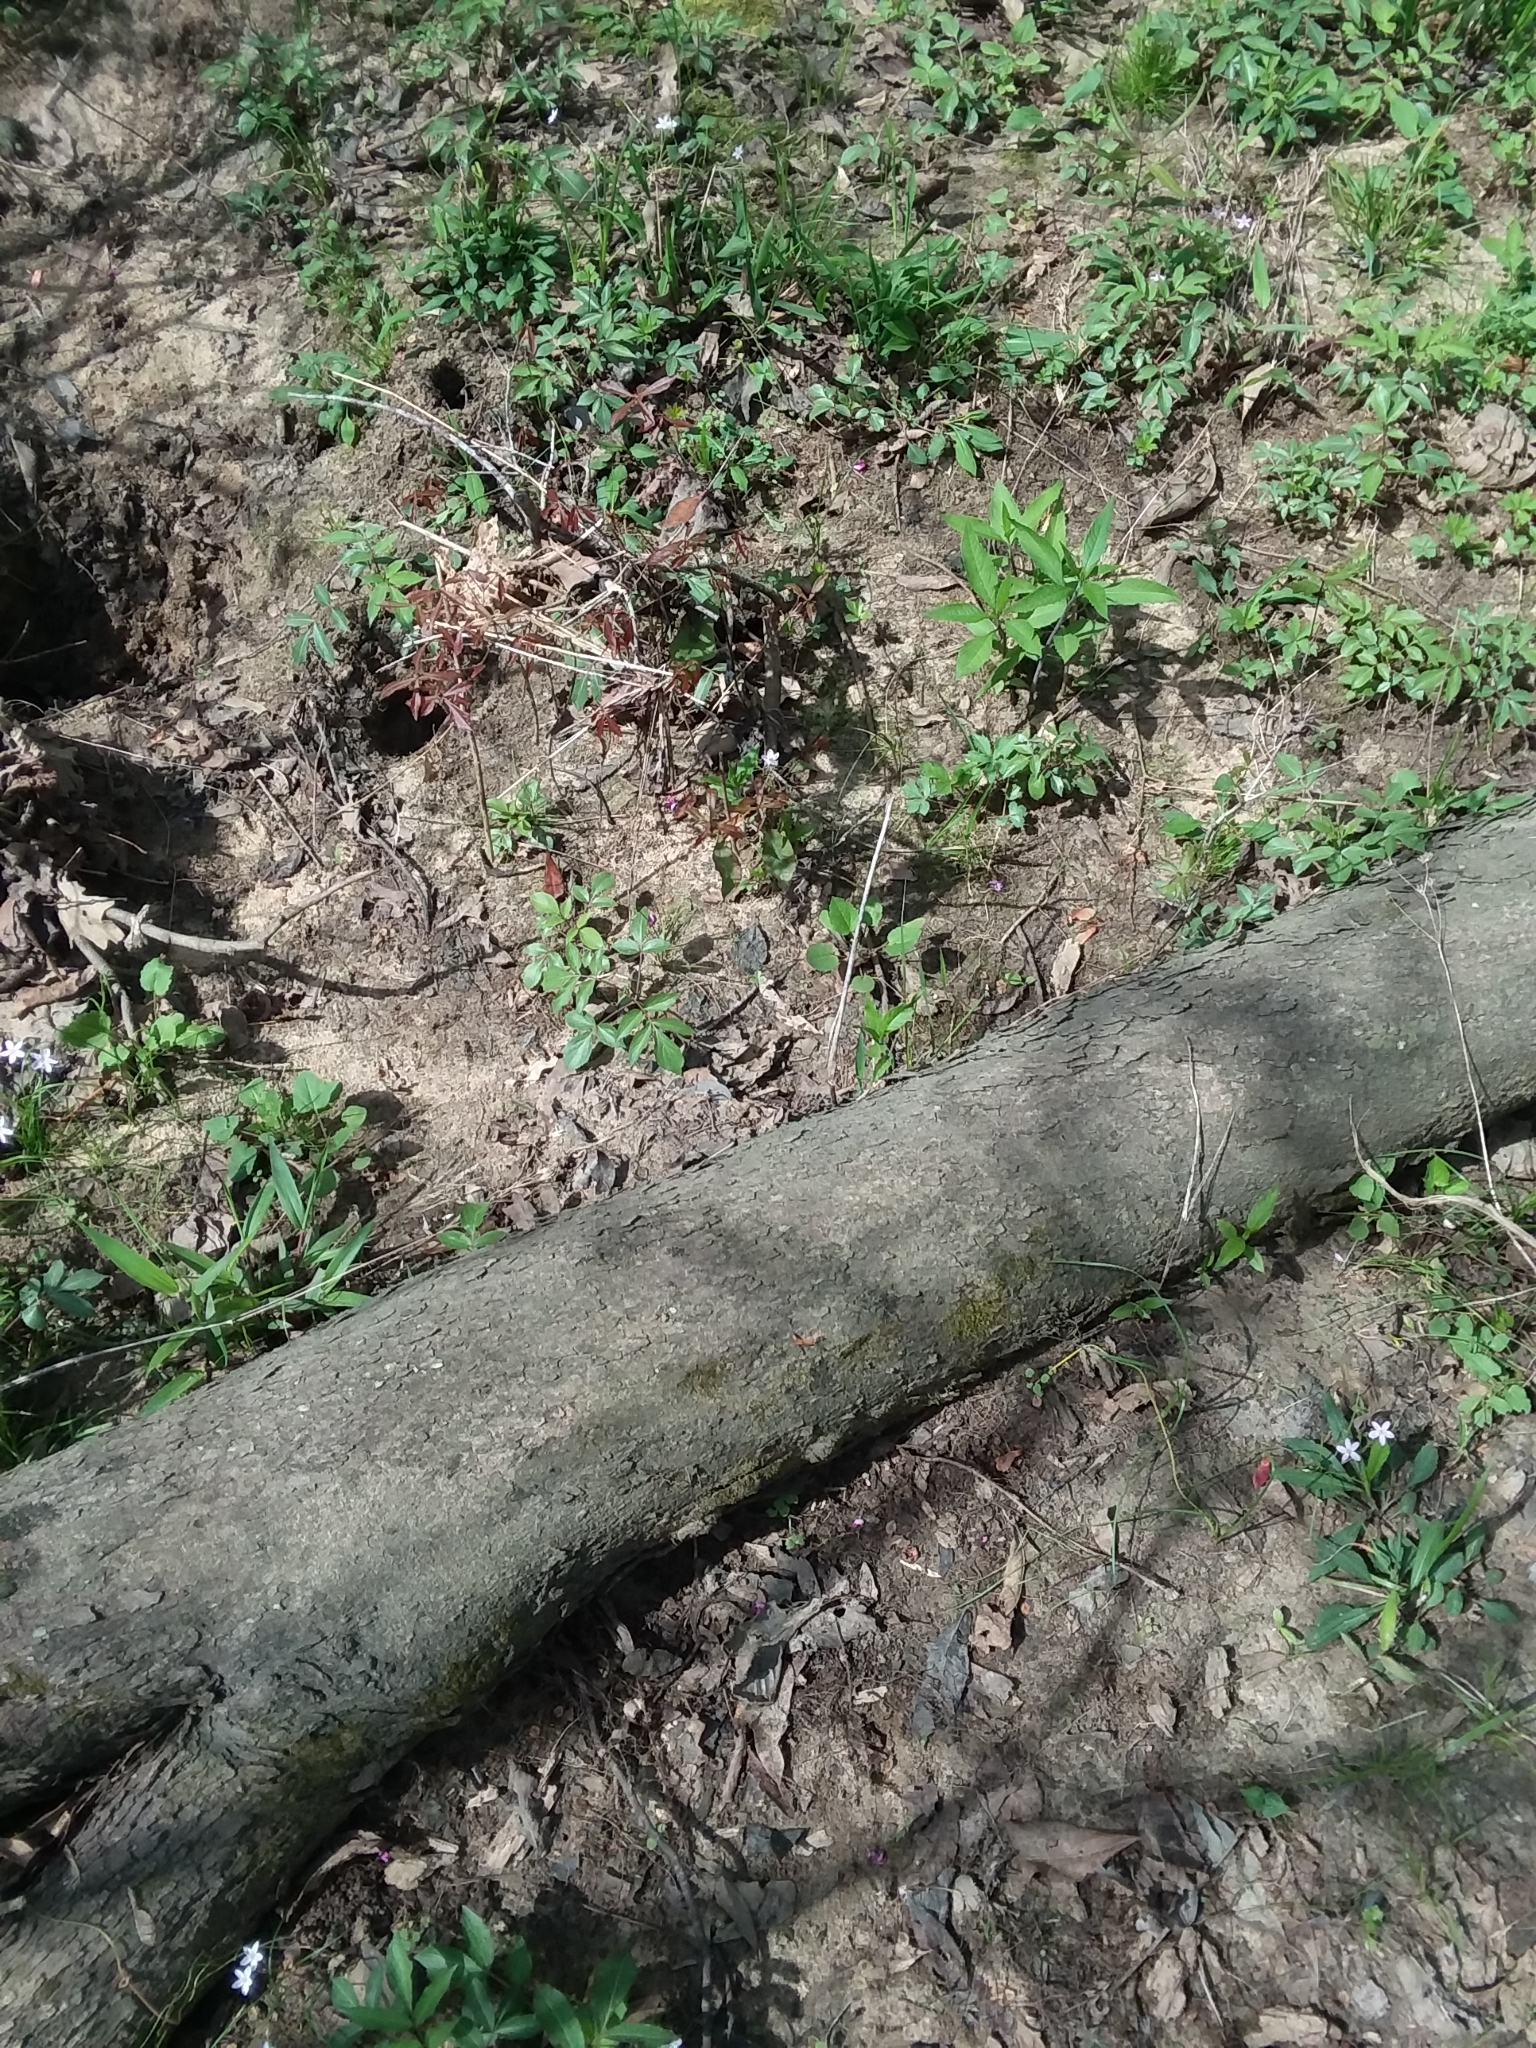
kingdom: Plantae
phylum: Tracheophyta
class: Magnoliopsida
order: Fabales
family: Fabaceae
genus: Cercis
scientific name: Cercis canadensis
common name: Eastern redbud
